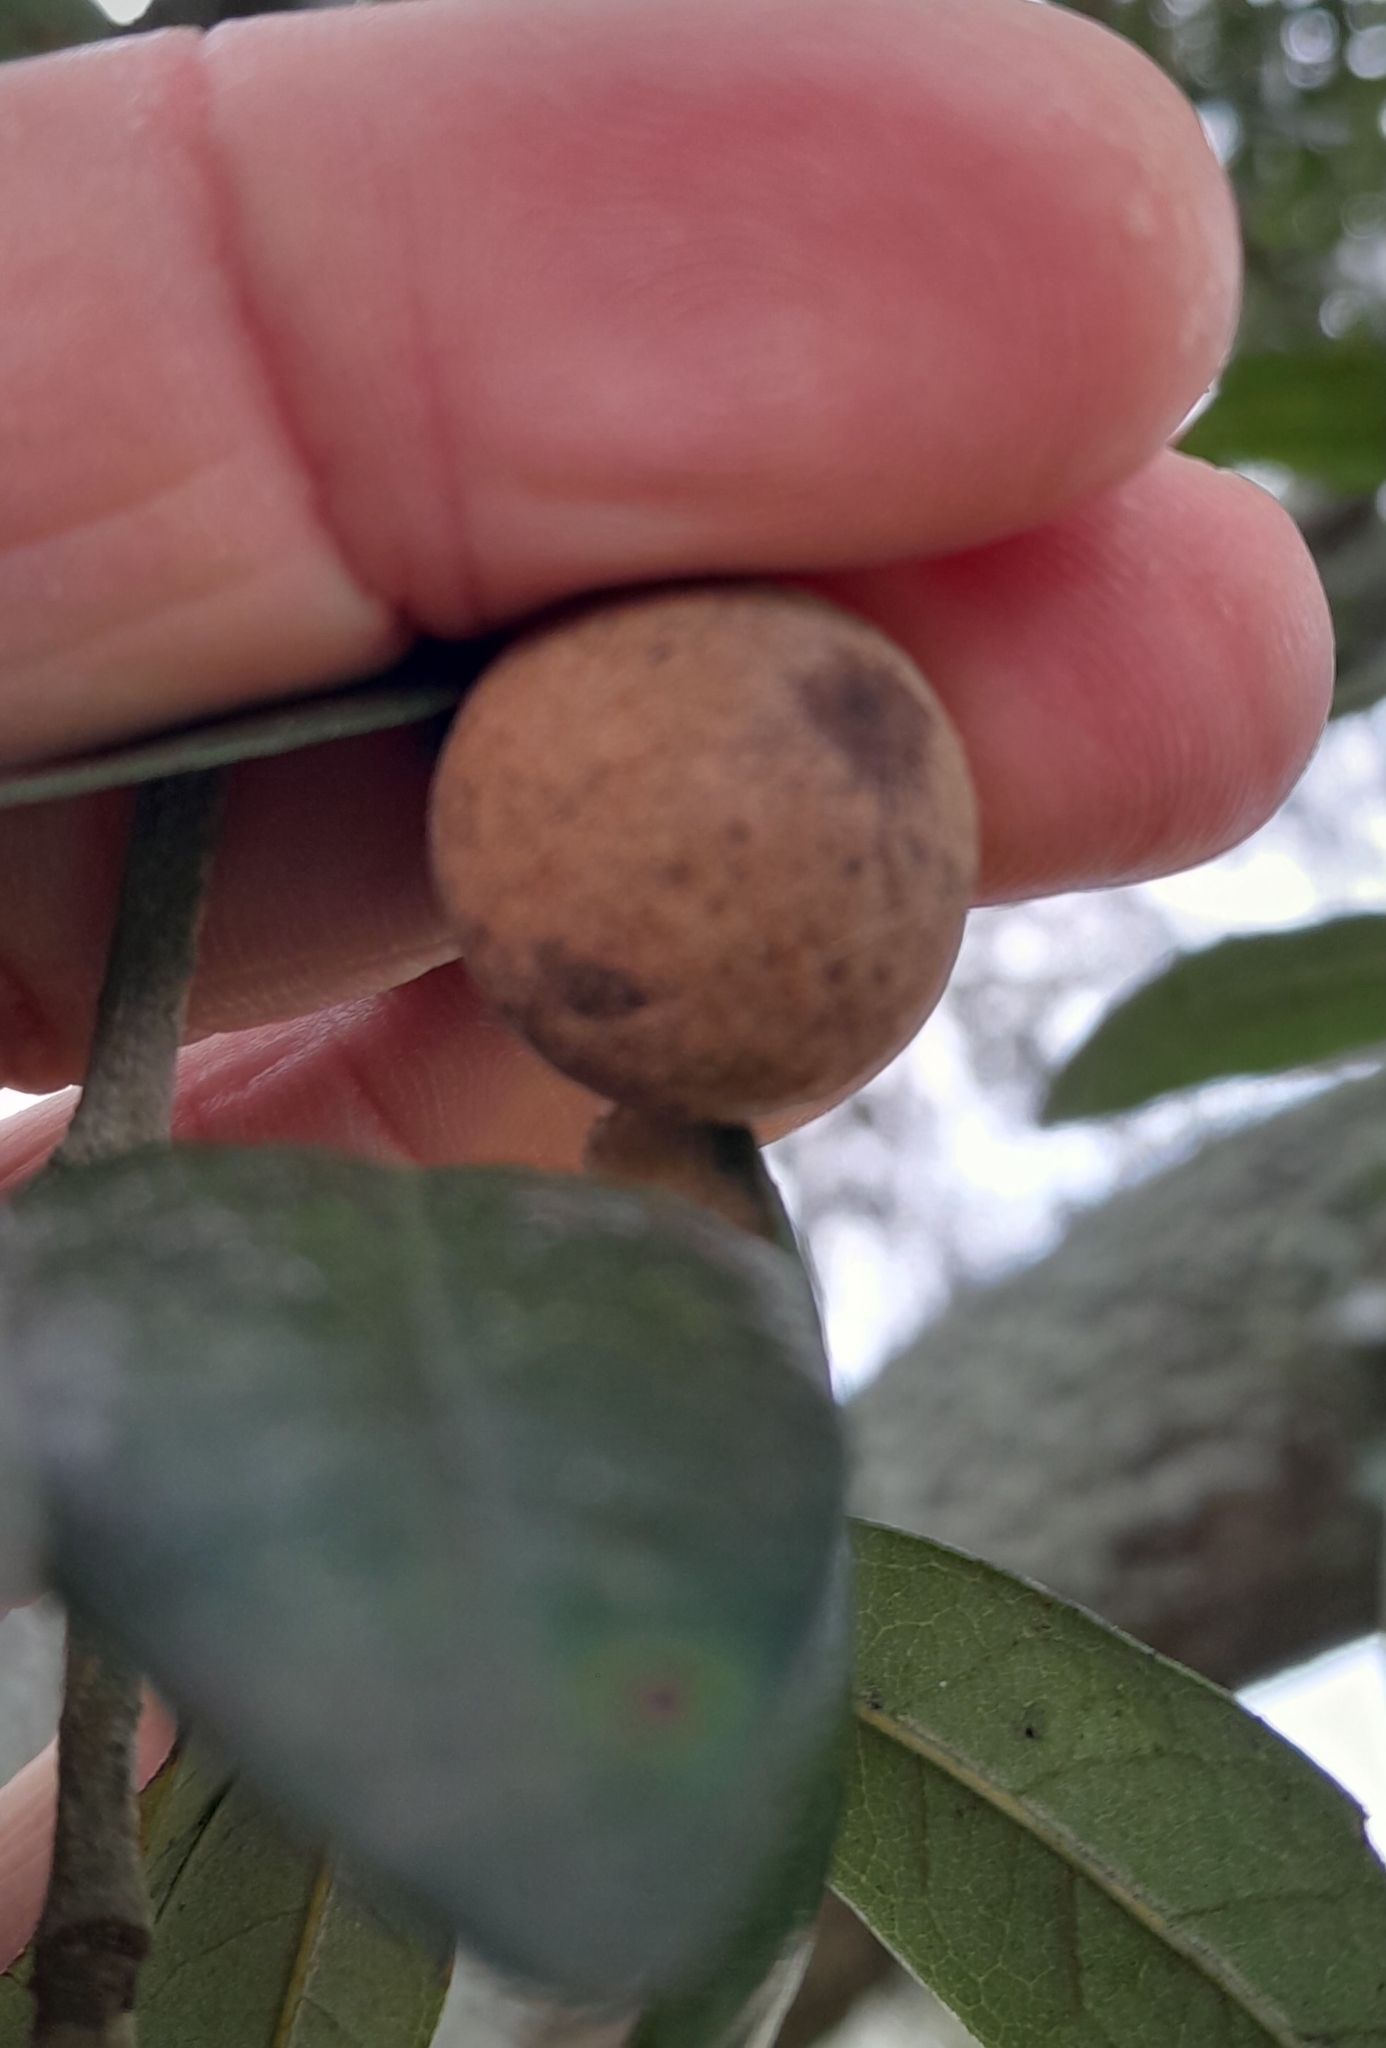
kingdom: Animalia
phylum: Arthropoda
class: Insecta
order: Hymenoptera
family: Cynipidae
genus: Disholcaspis
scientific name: Disholcaspis
